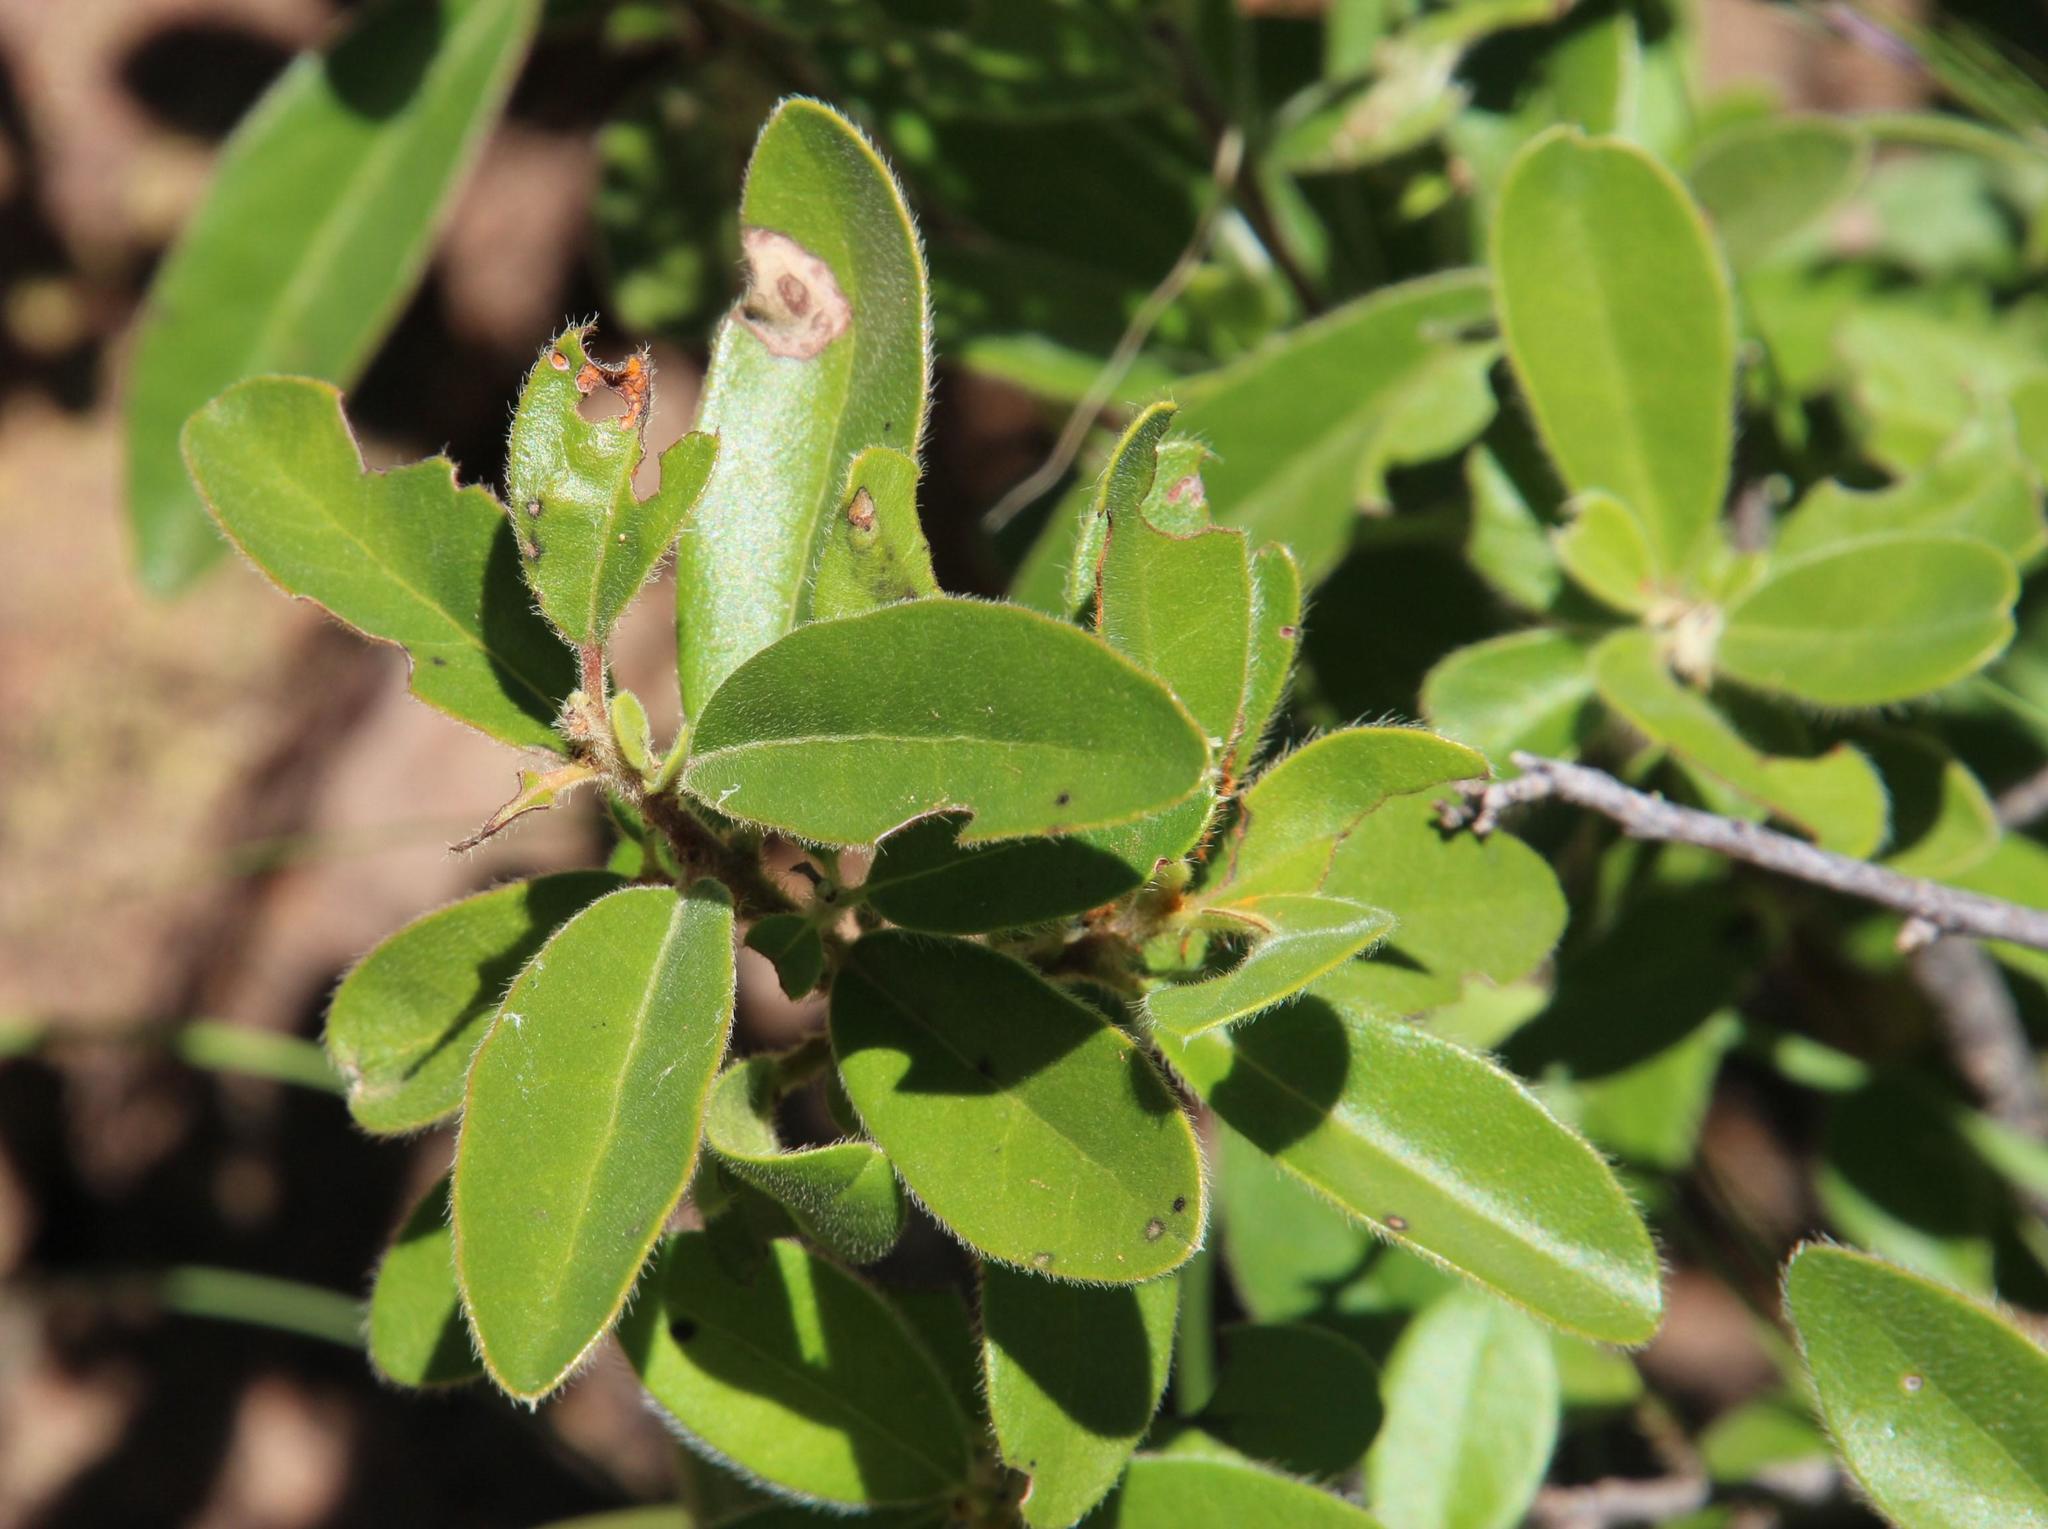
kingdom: Plantae
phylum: Tracheophyta
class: Magnoliopsida
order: Ericales
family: Ebenaceae
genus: Diospyros
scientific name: Diospyros scabrida
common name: Coastal bladder-nut
